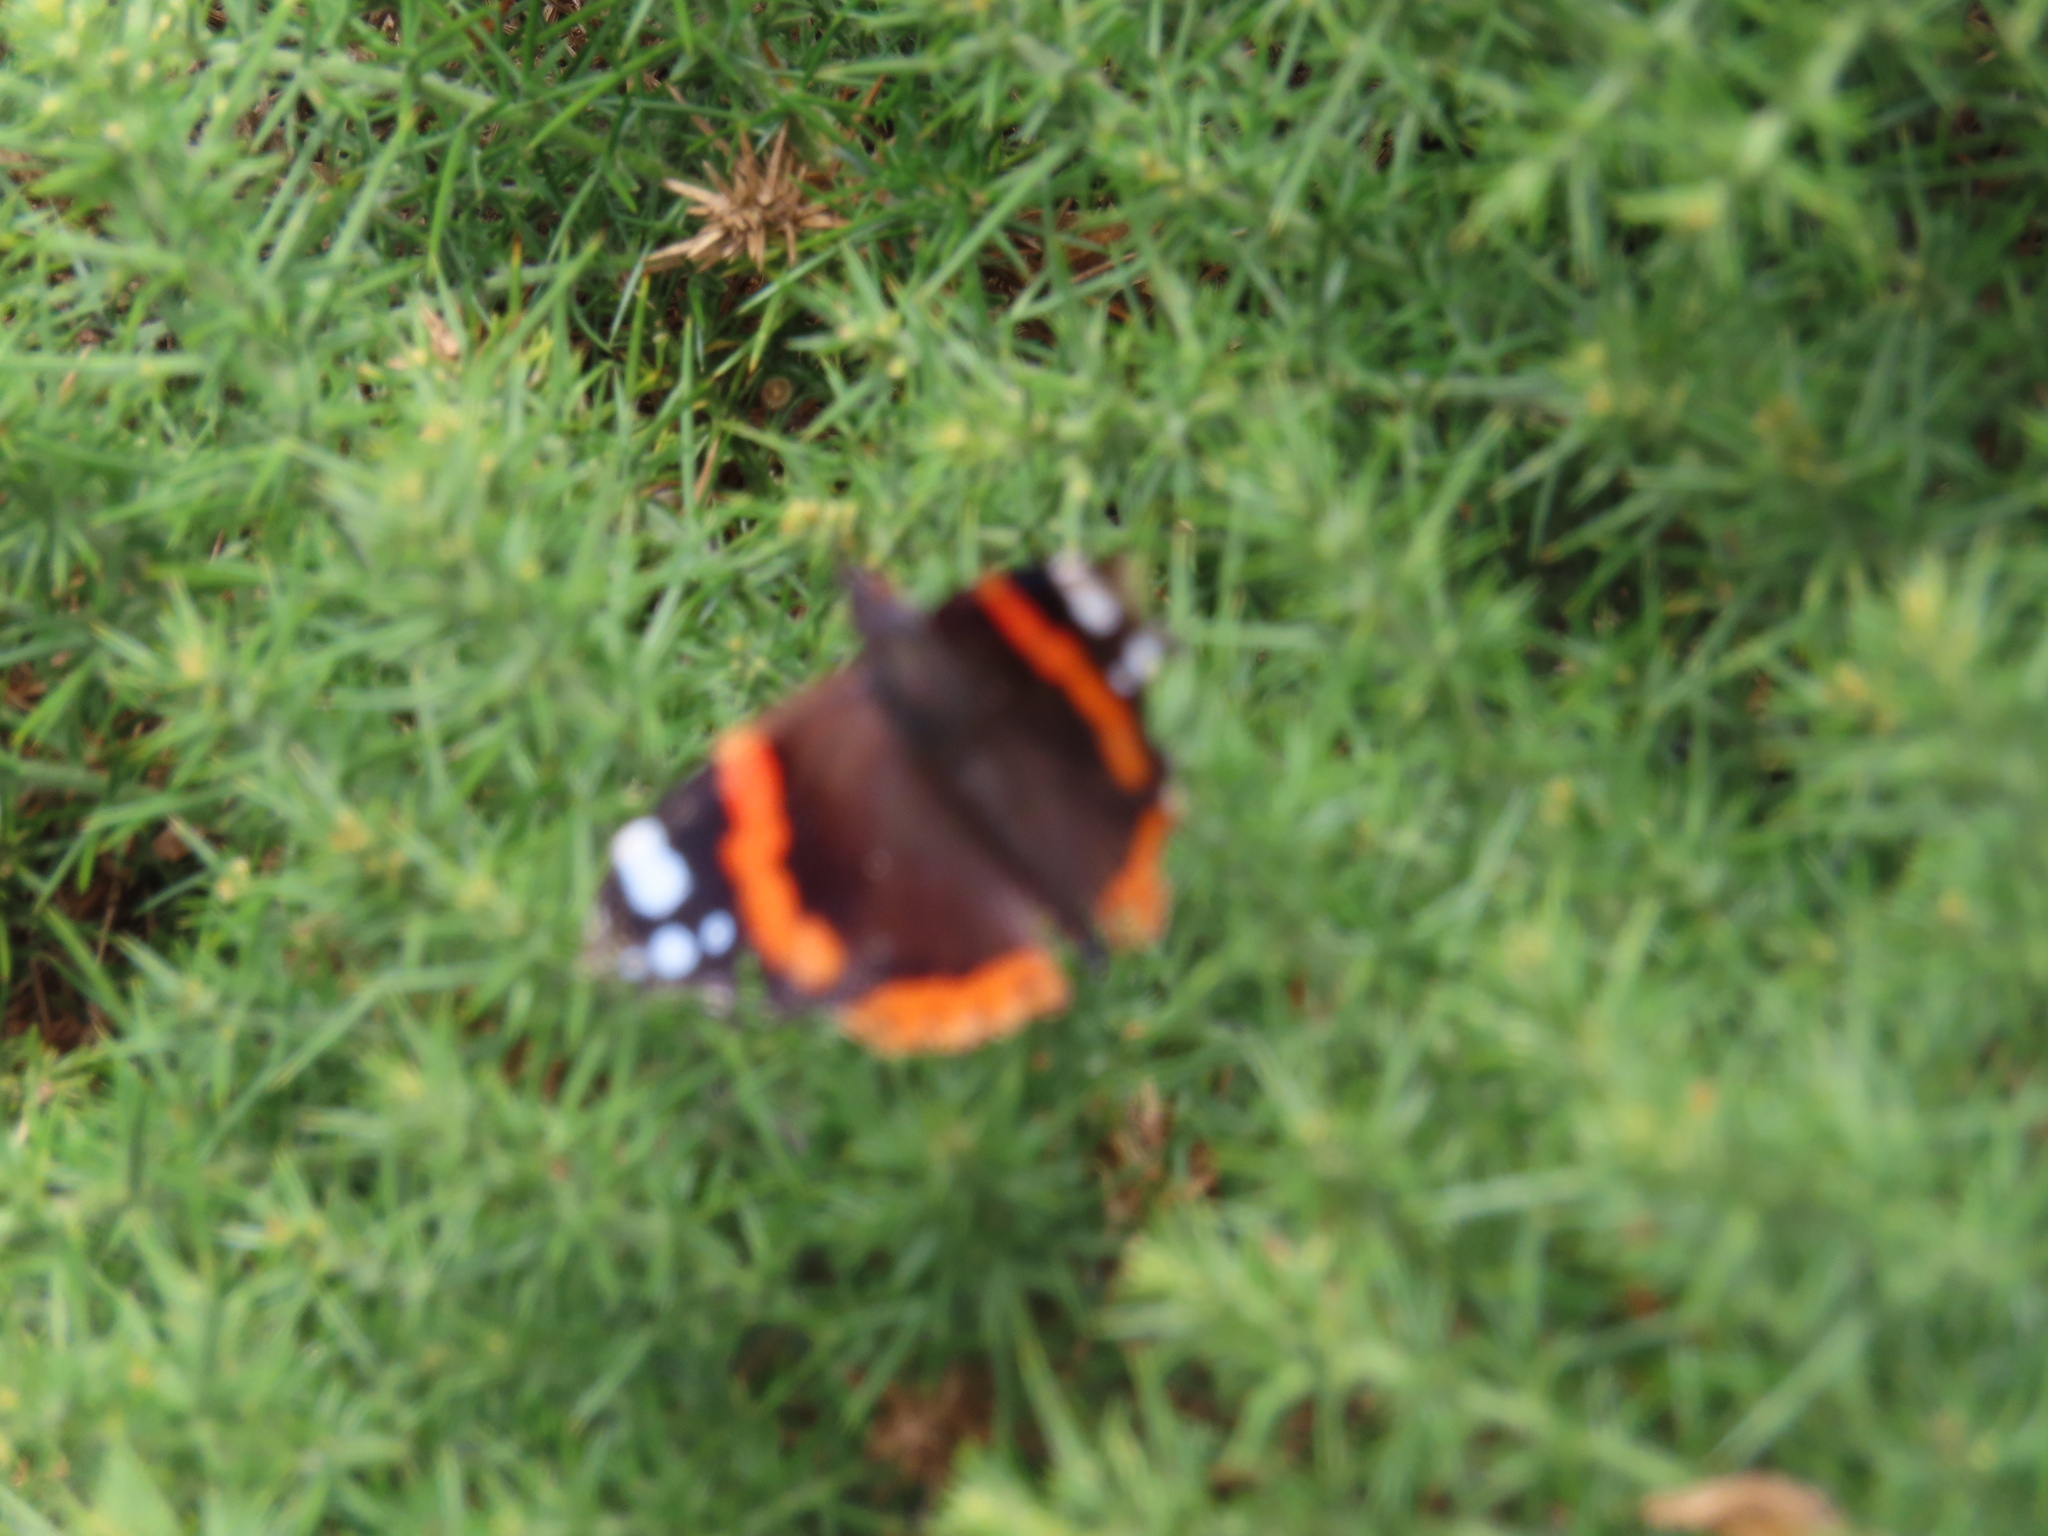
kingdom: Animalia
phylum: Arthropoda
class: Insecta
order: Lepidoptera
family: Nymphalidae
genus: Vanessa
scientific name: Vanessa atalanta
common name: Red admiral
